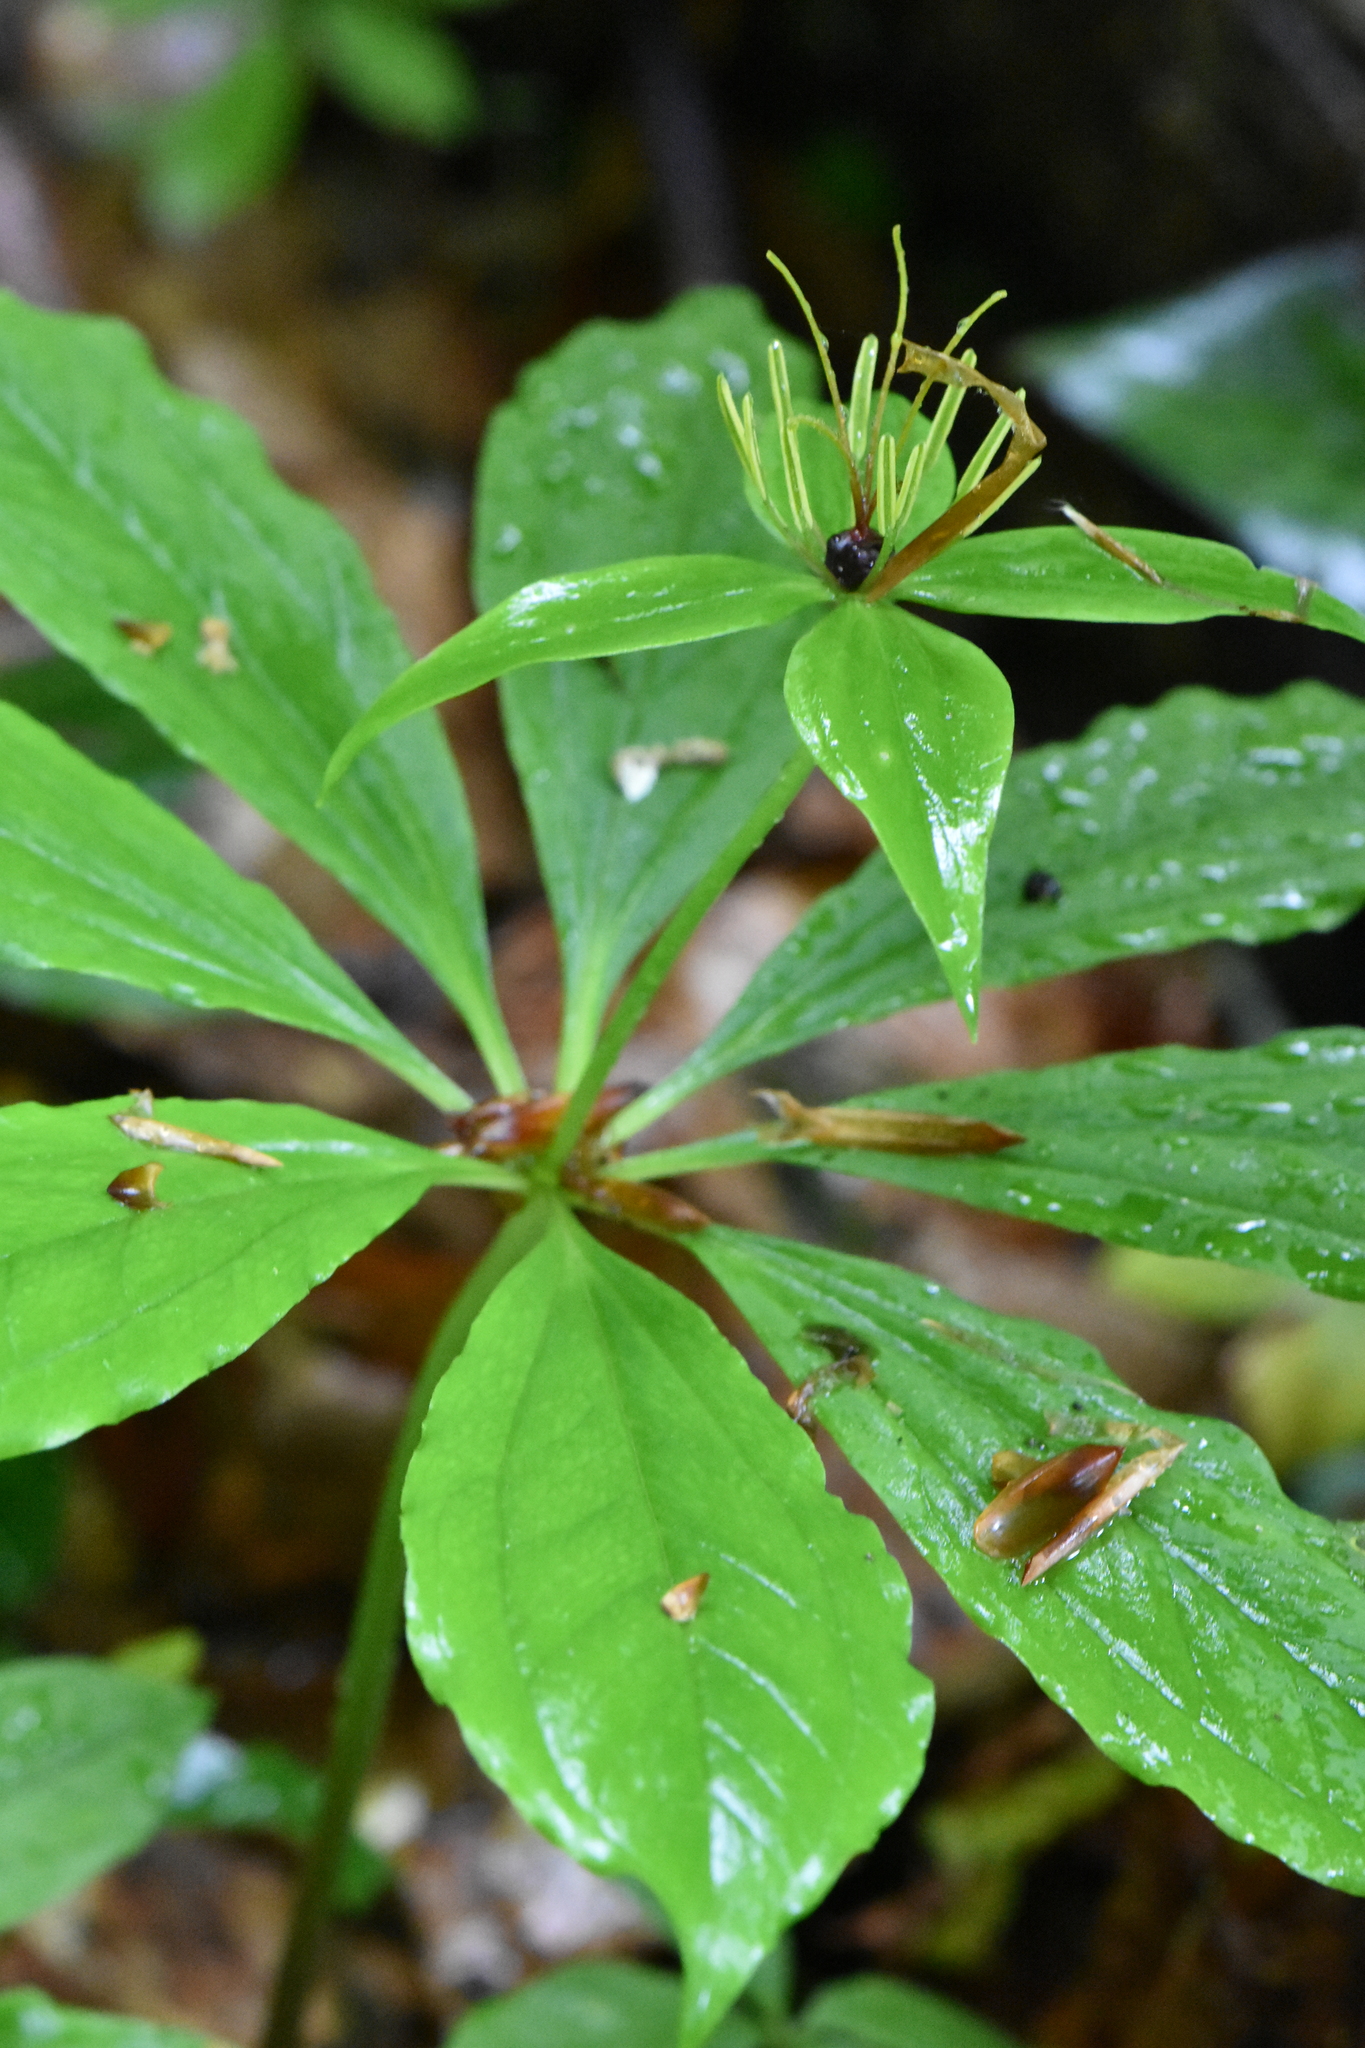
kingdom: Plantae
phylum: Tracheophyta
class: Liliopsida
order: Liliales
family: Melanthiaceae
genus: Paris
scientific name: Paris incompleta
